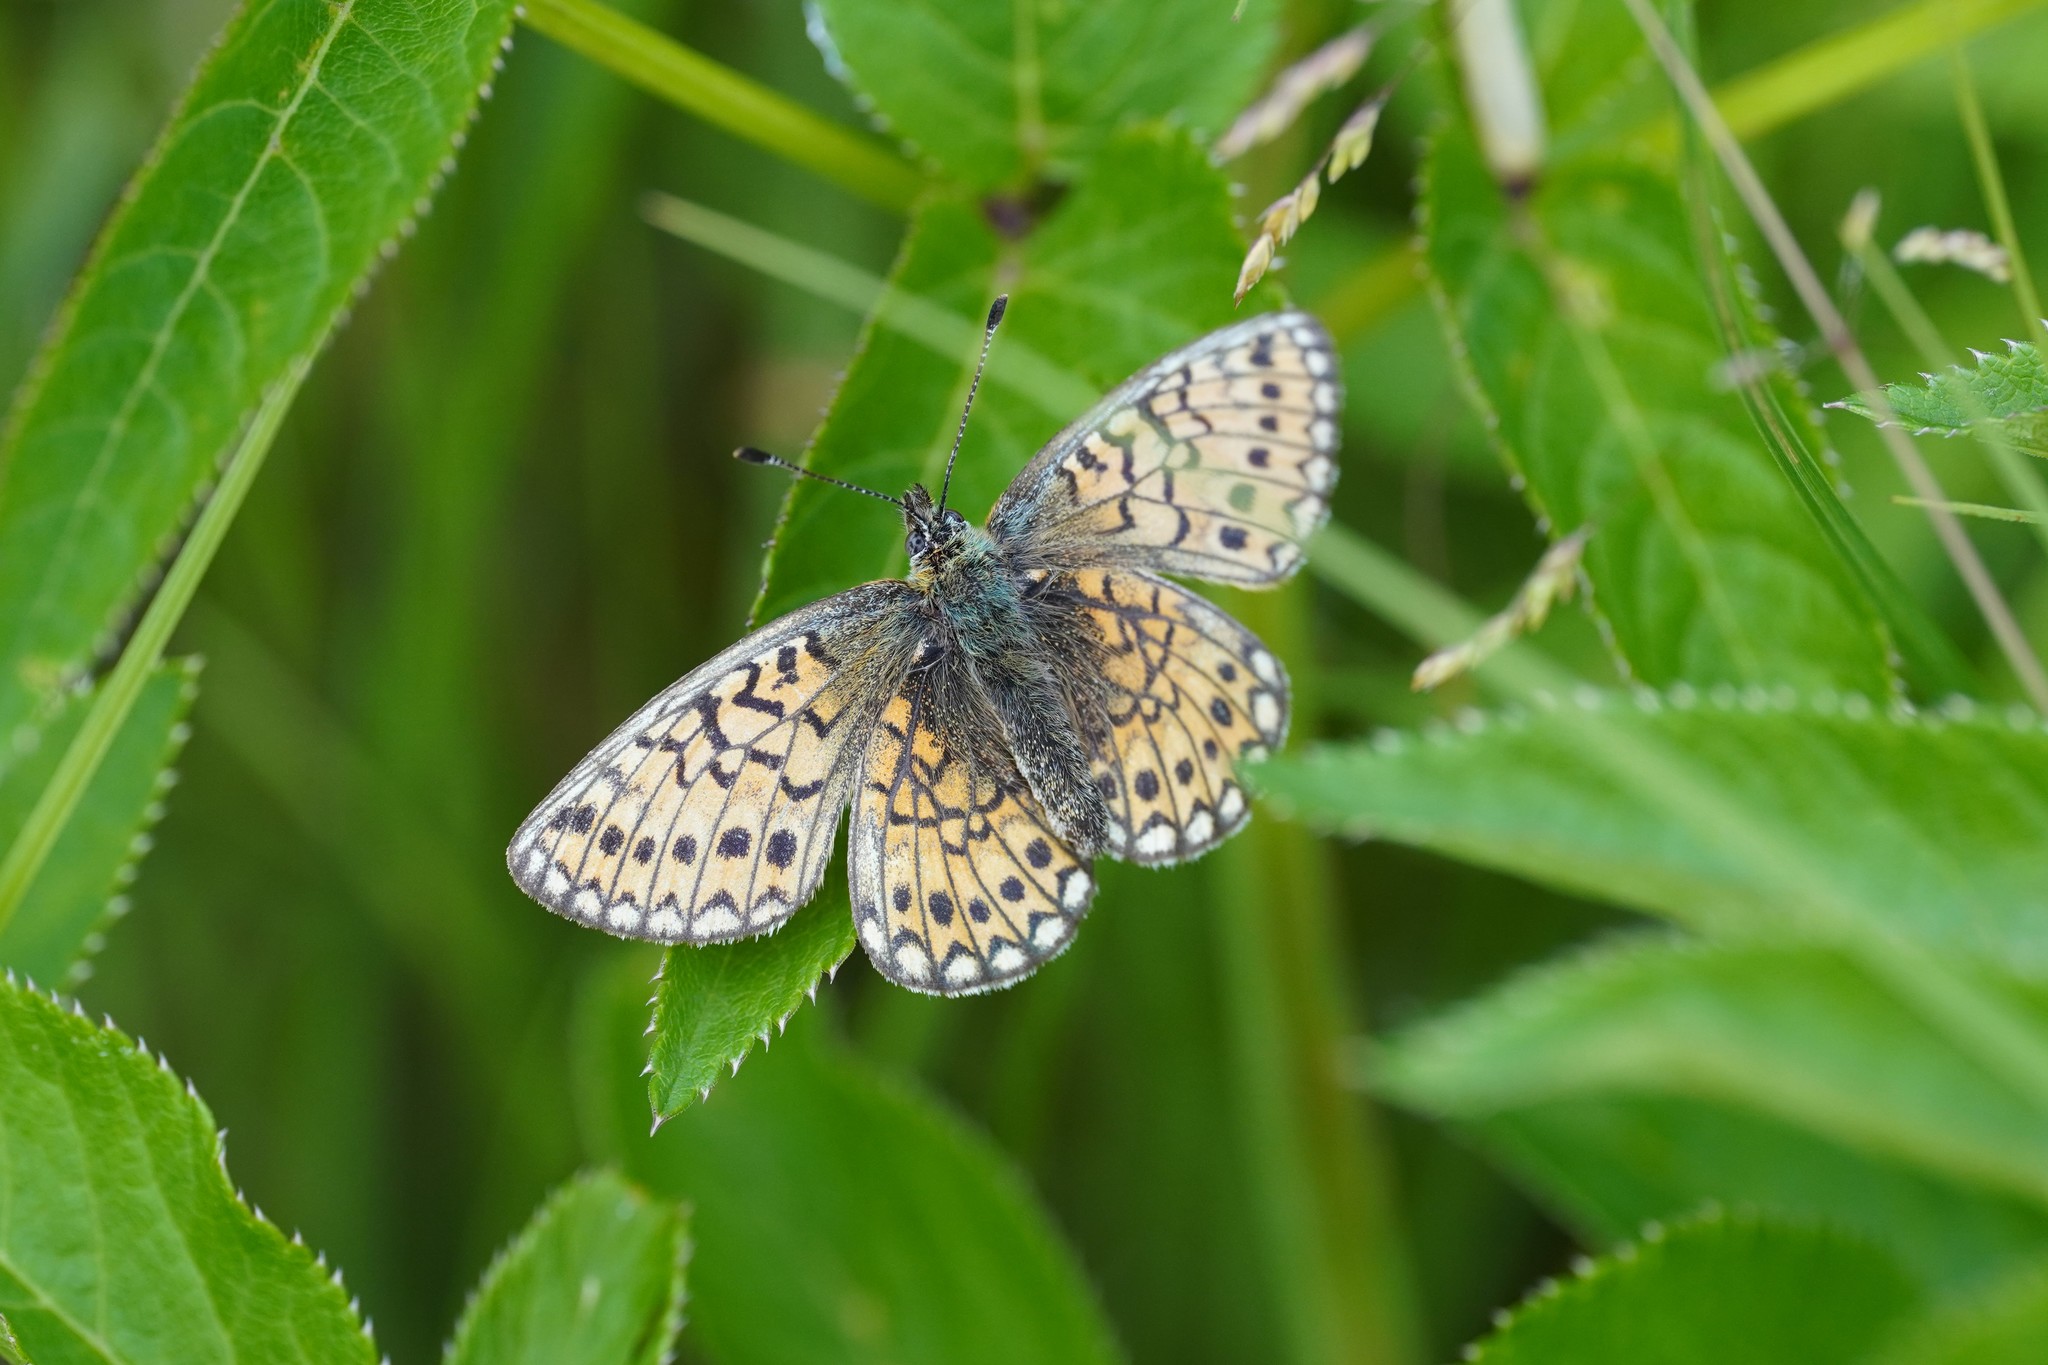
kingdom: Animalia
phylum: Arthropoda
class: Insecta
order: Lepidoptera
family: Nymphalidae
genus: Boloria
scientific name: Boloria eunomia
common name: Bog fritillary
